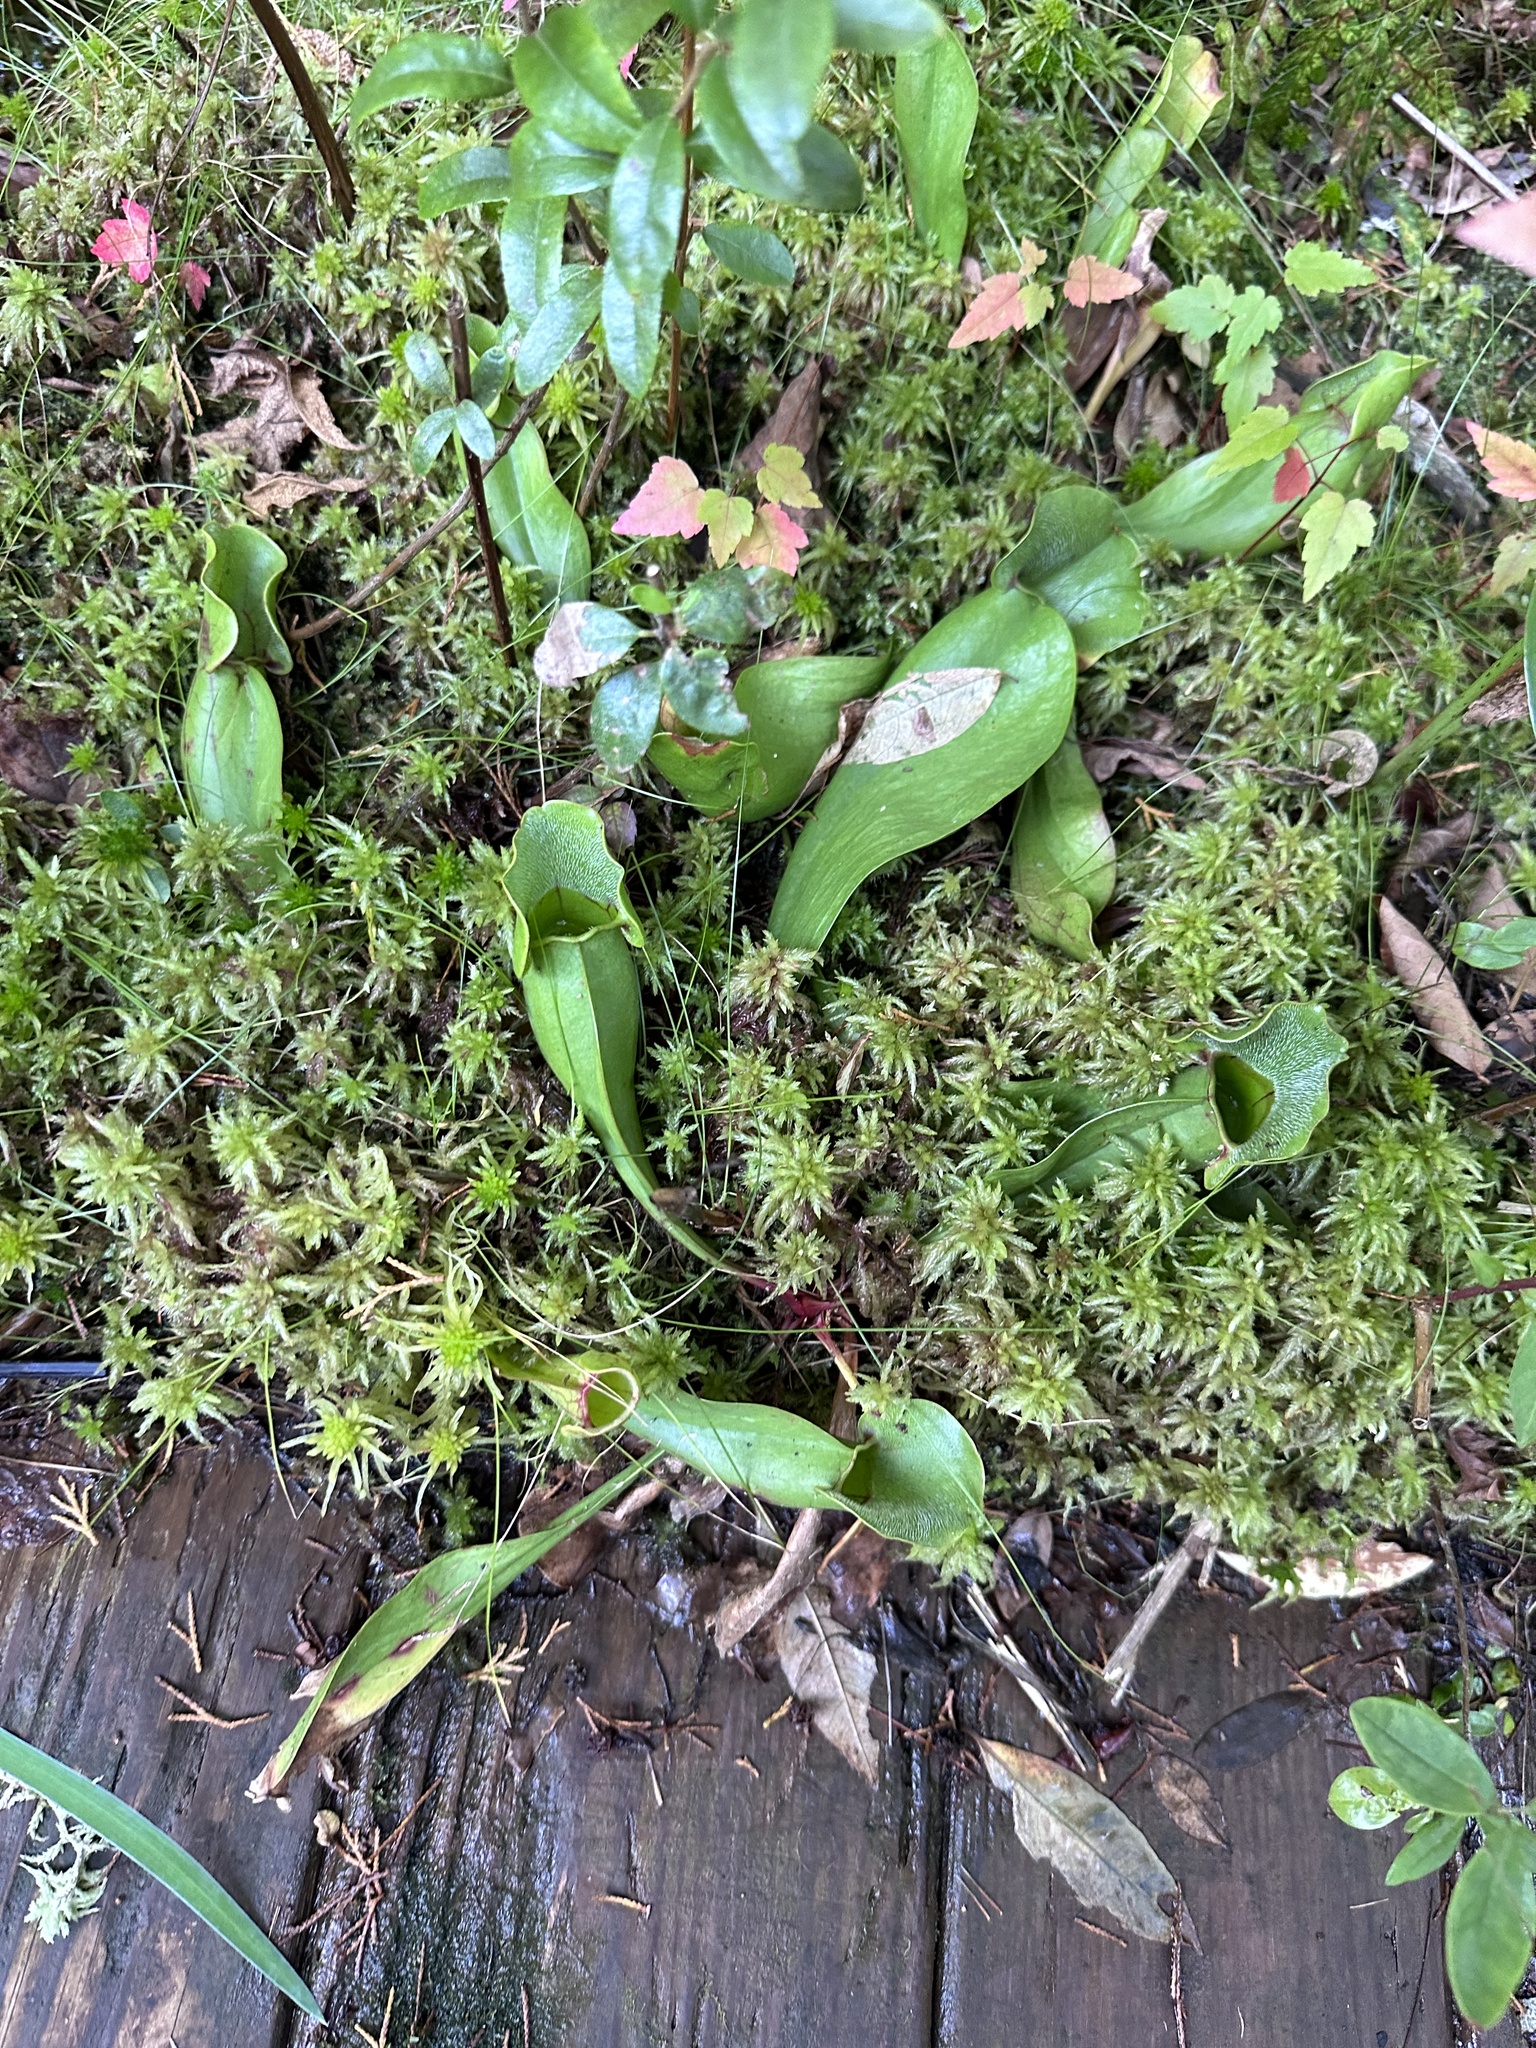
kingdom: Plantae
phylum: Tracheophyta
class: Magnoliopsida
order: Ericales
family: Sarraceniaceae
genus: Sarracenia
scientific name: Sarracenia purpurea
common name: Pitcherplant
